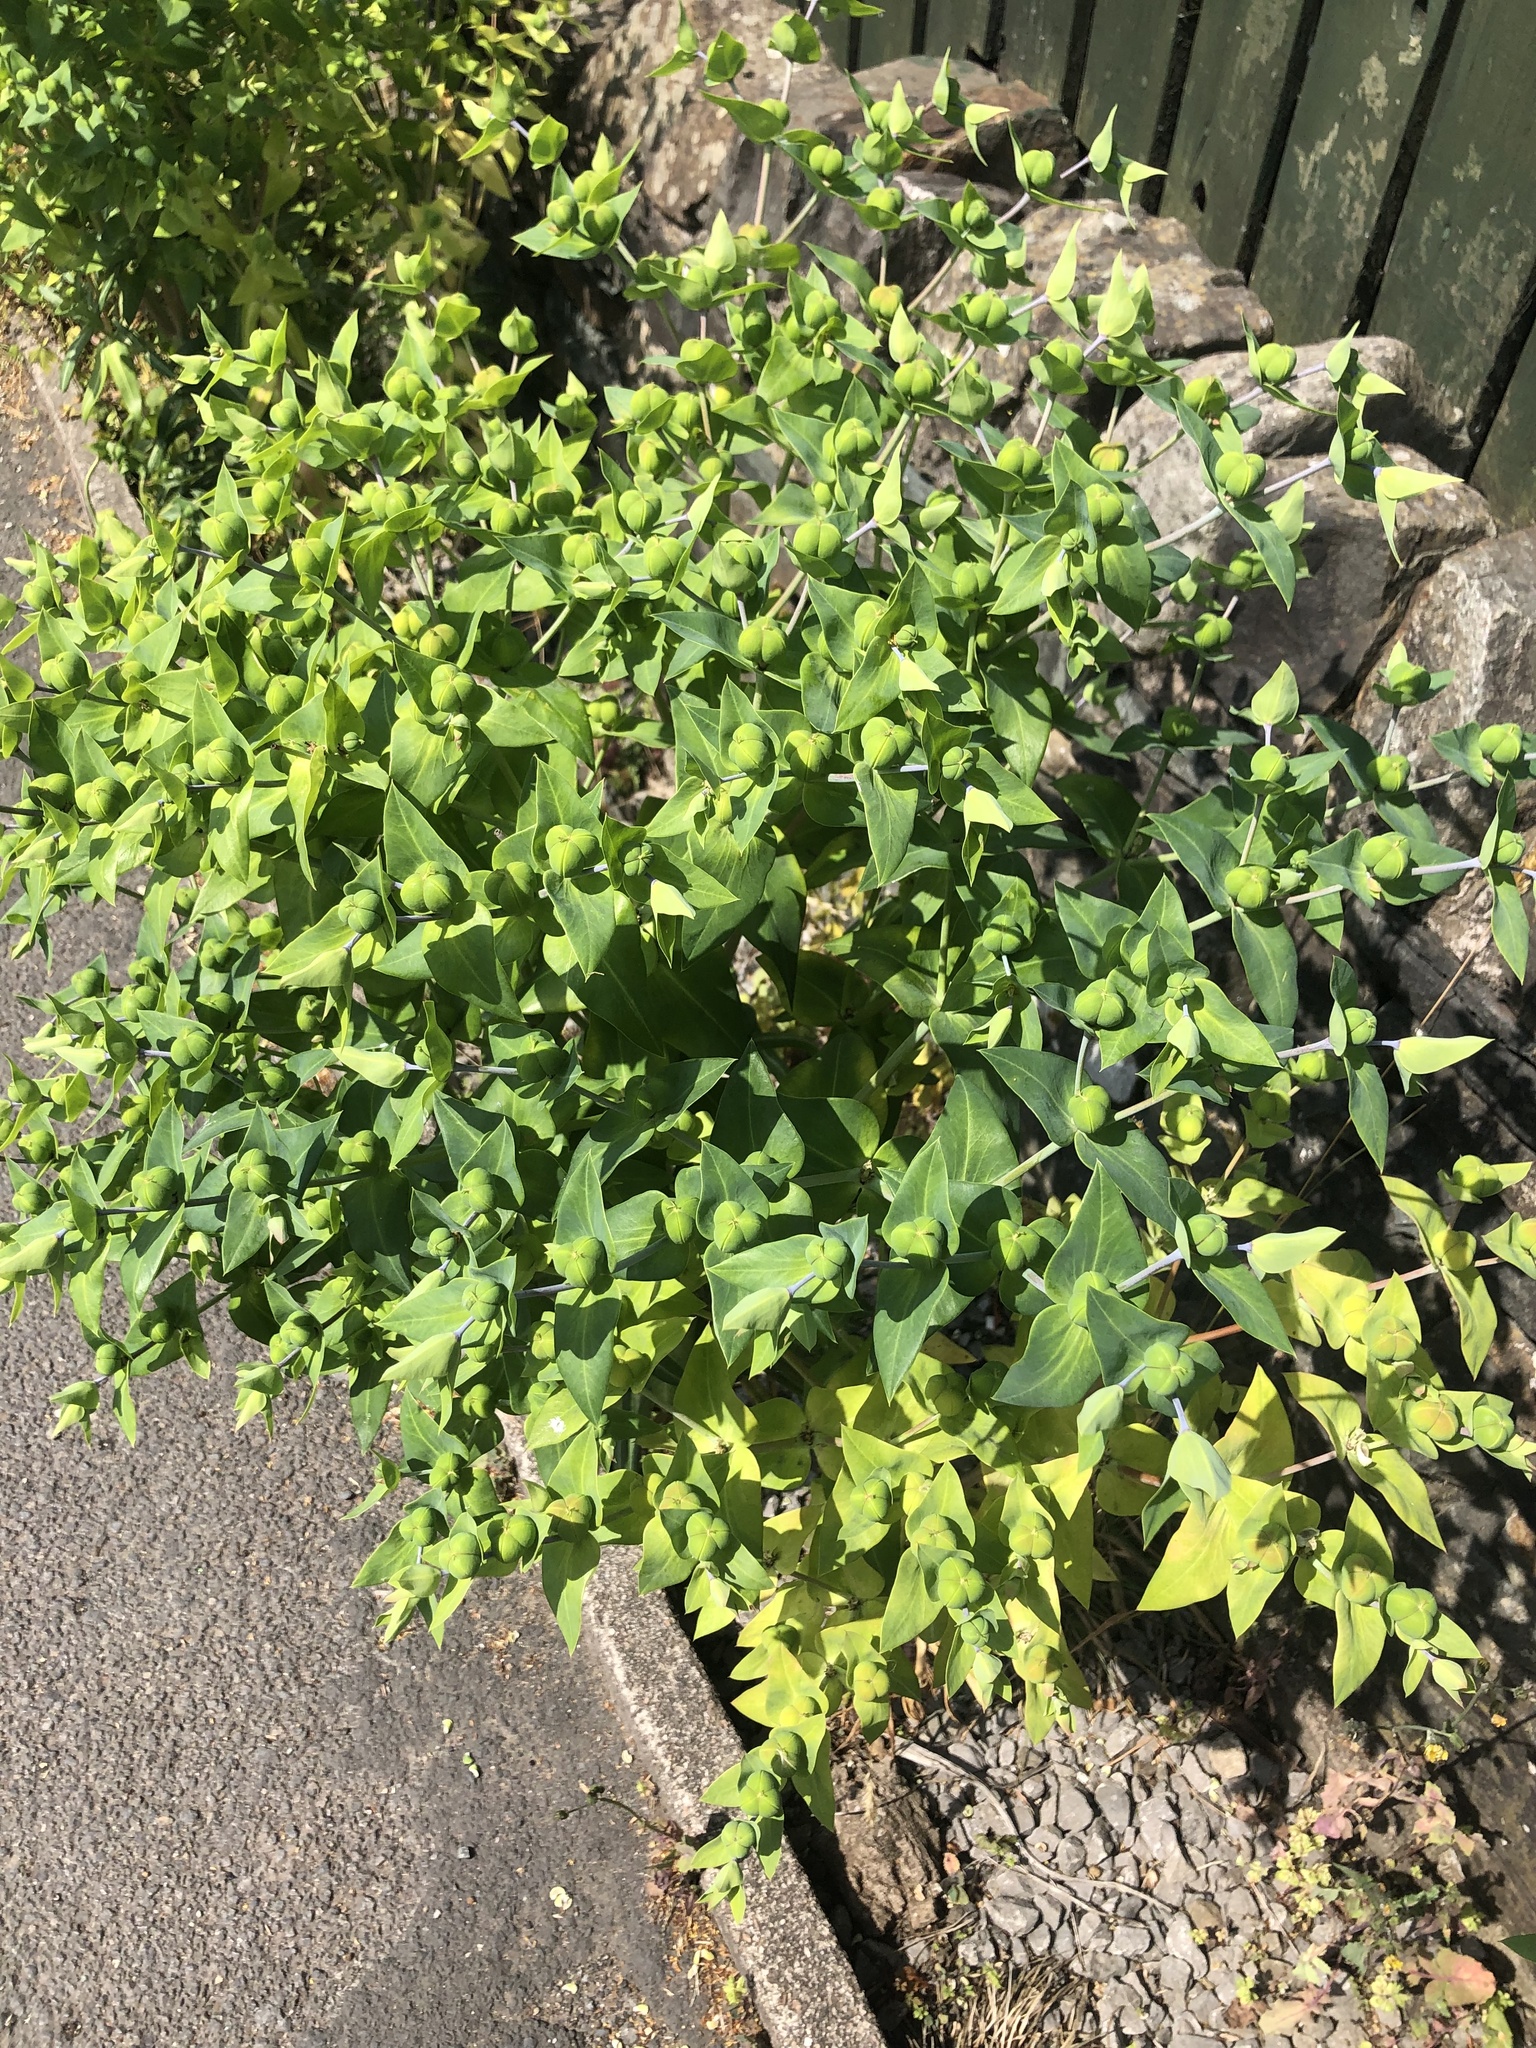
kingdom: Plantae
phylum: Tracheophyta
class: Magnoliopsida
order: Malpighiales
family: Euphorbiaceae
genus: Euphorbia
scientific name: Euphorbia lathyris
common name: Caper spurge
